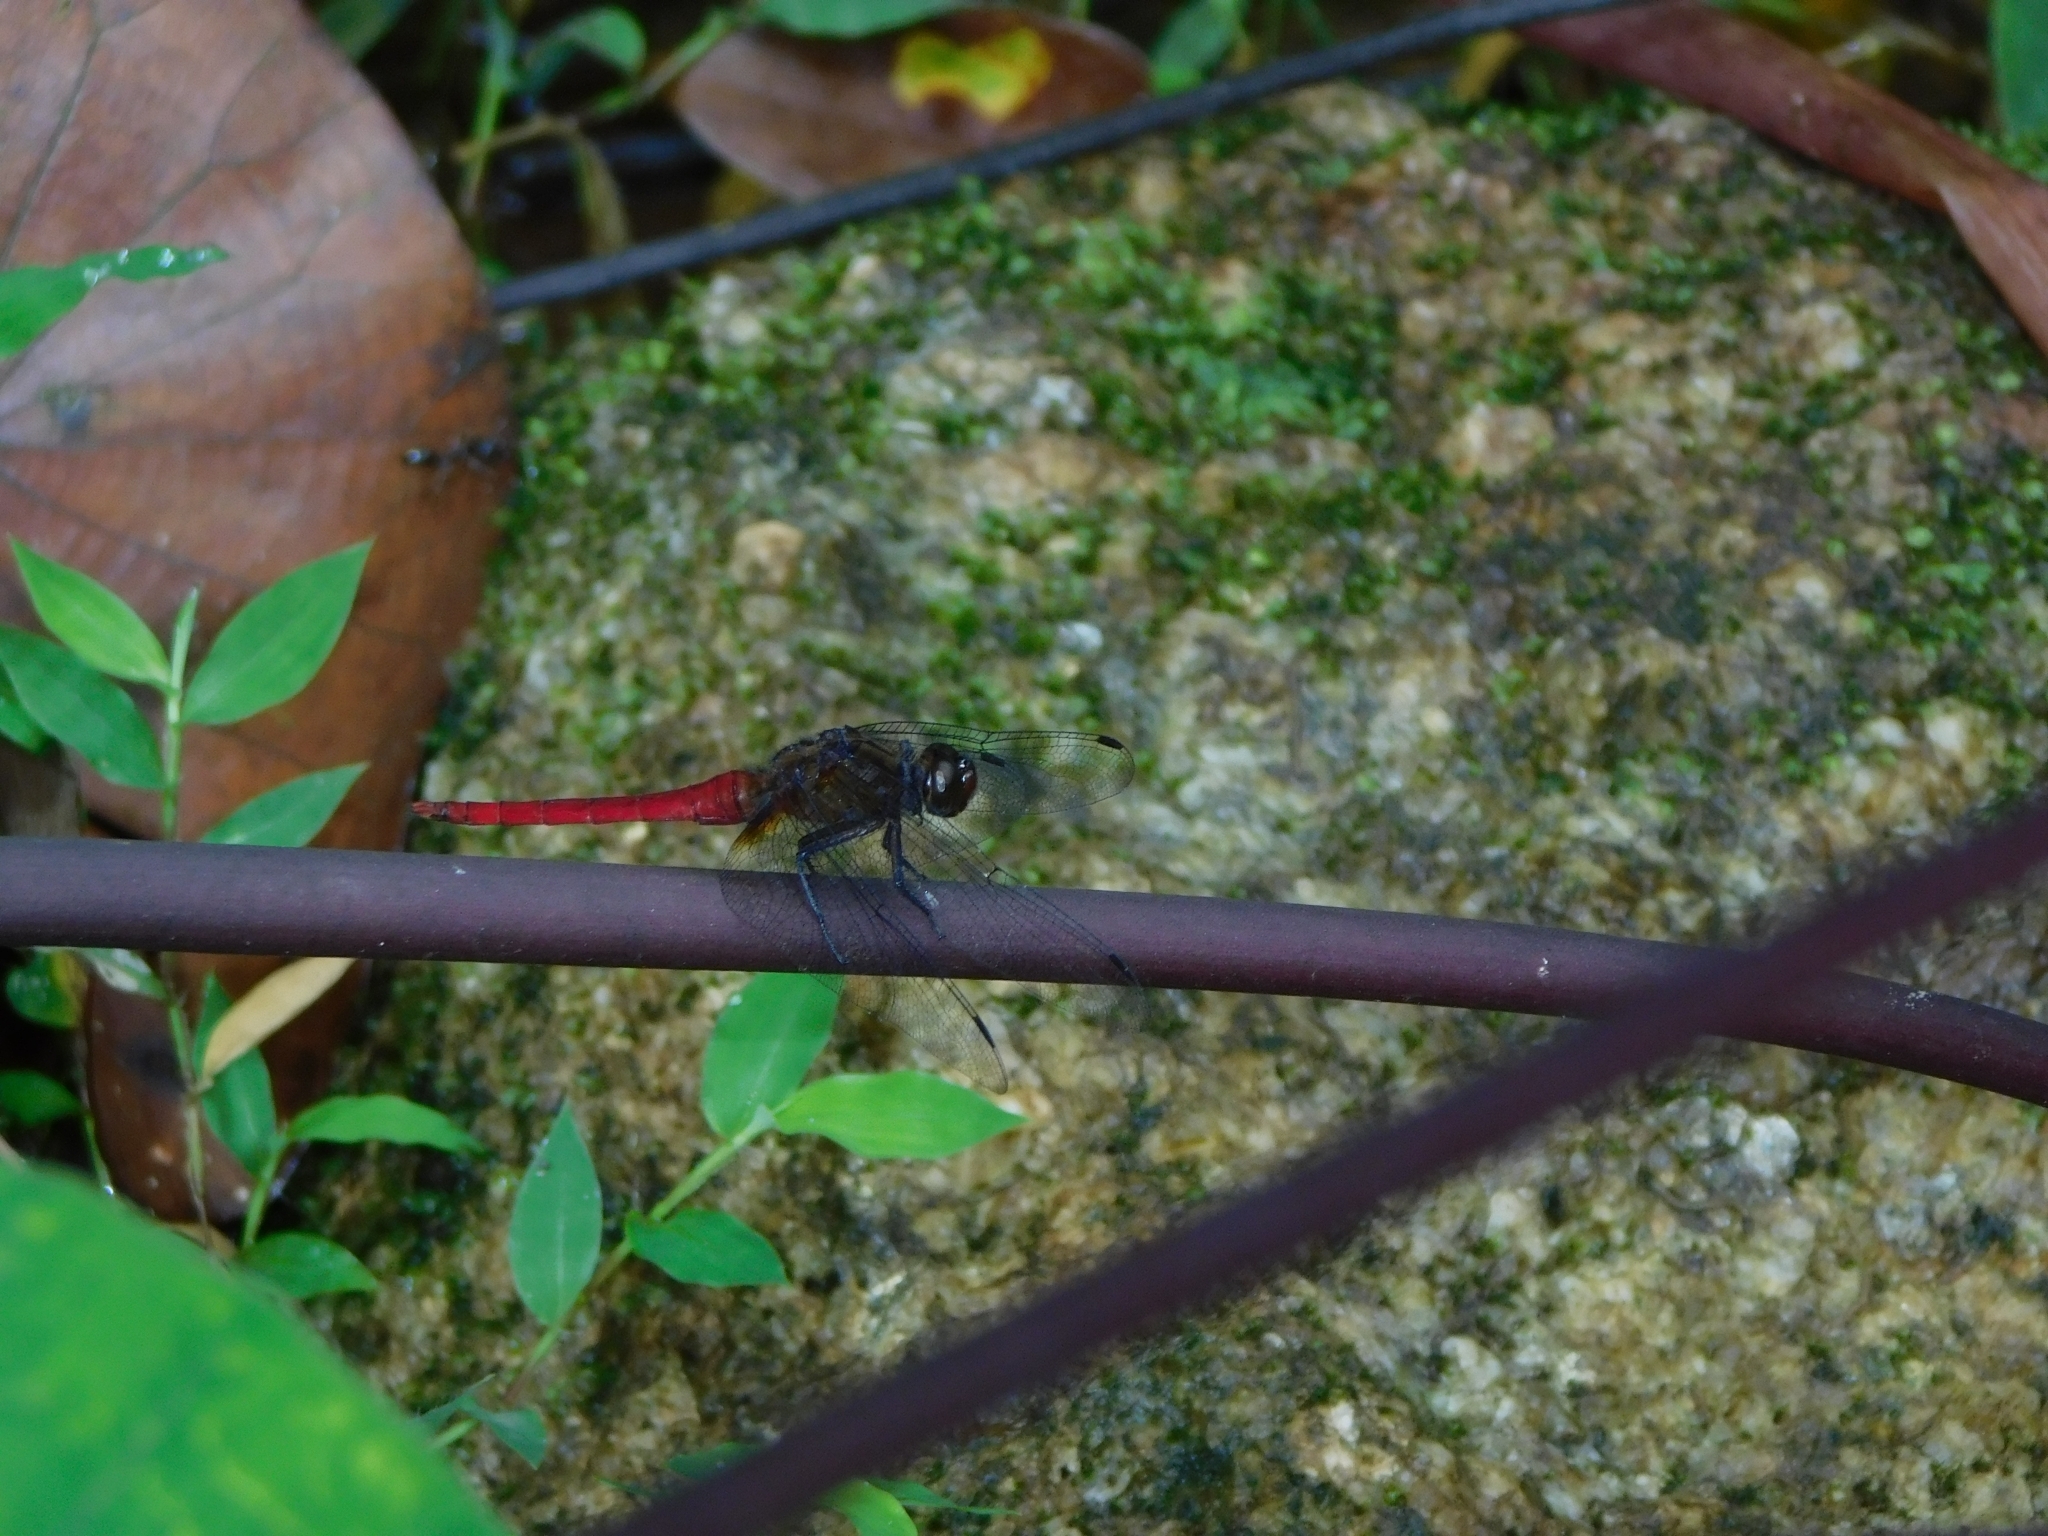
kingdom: Animalia
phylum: Arthropoda
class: Insecta
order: Odonata
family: Libellulidae
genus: Orthetrum
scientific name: Orthetrum chrysis
